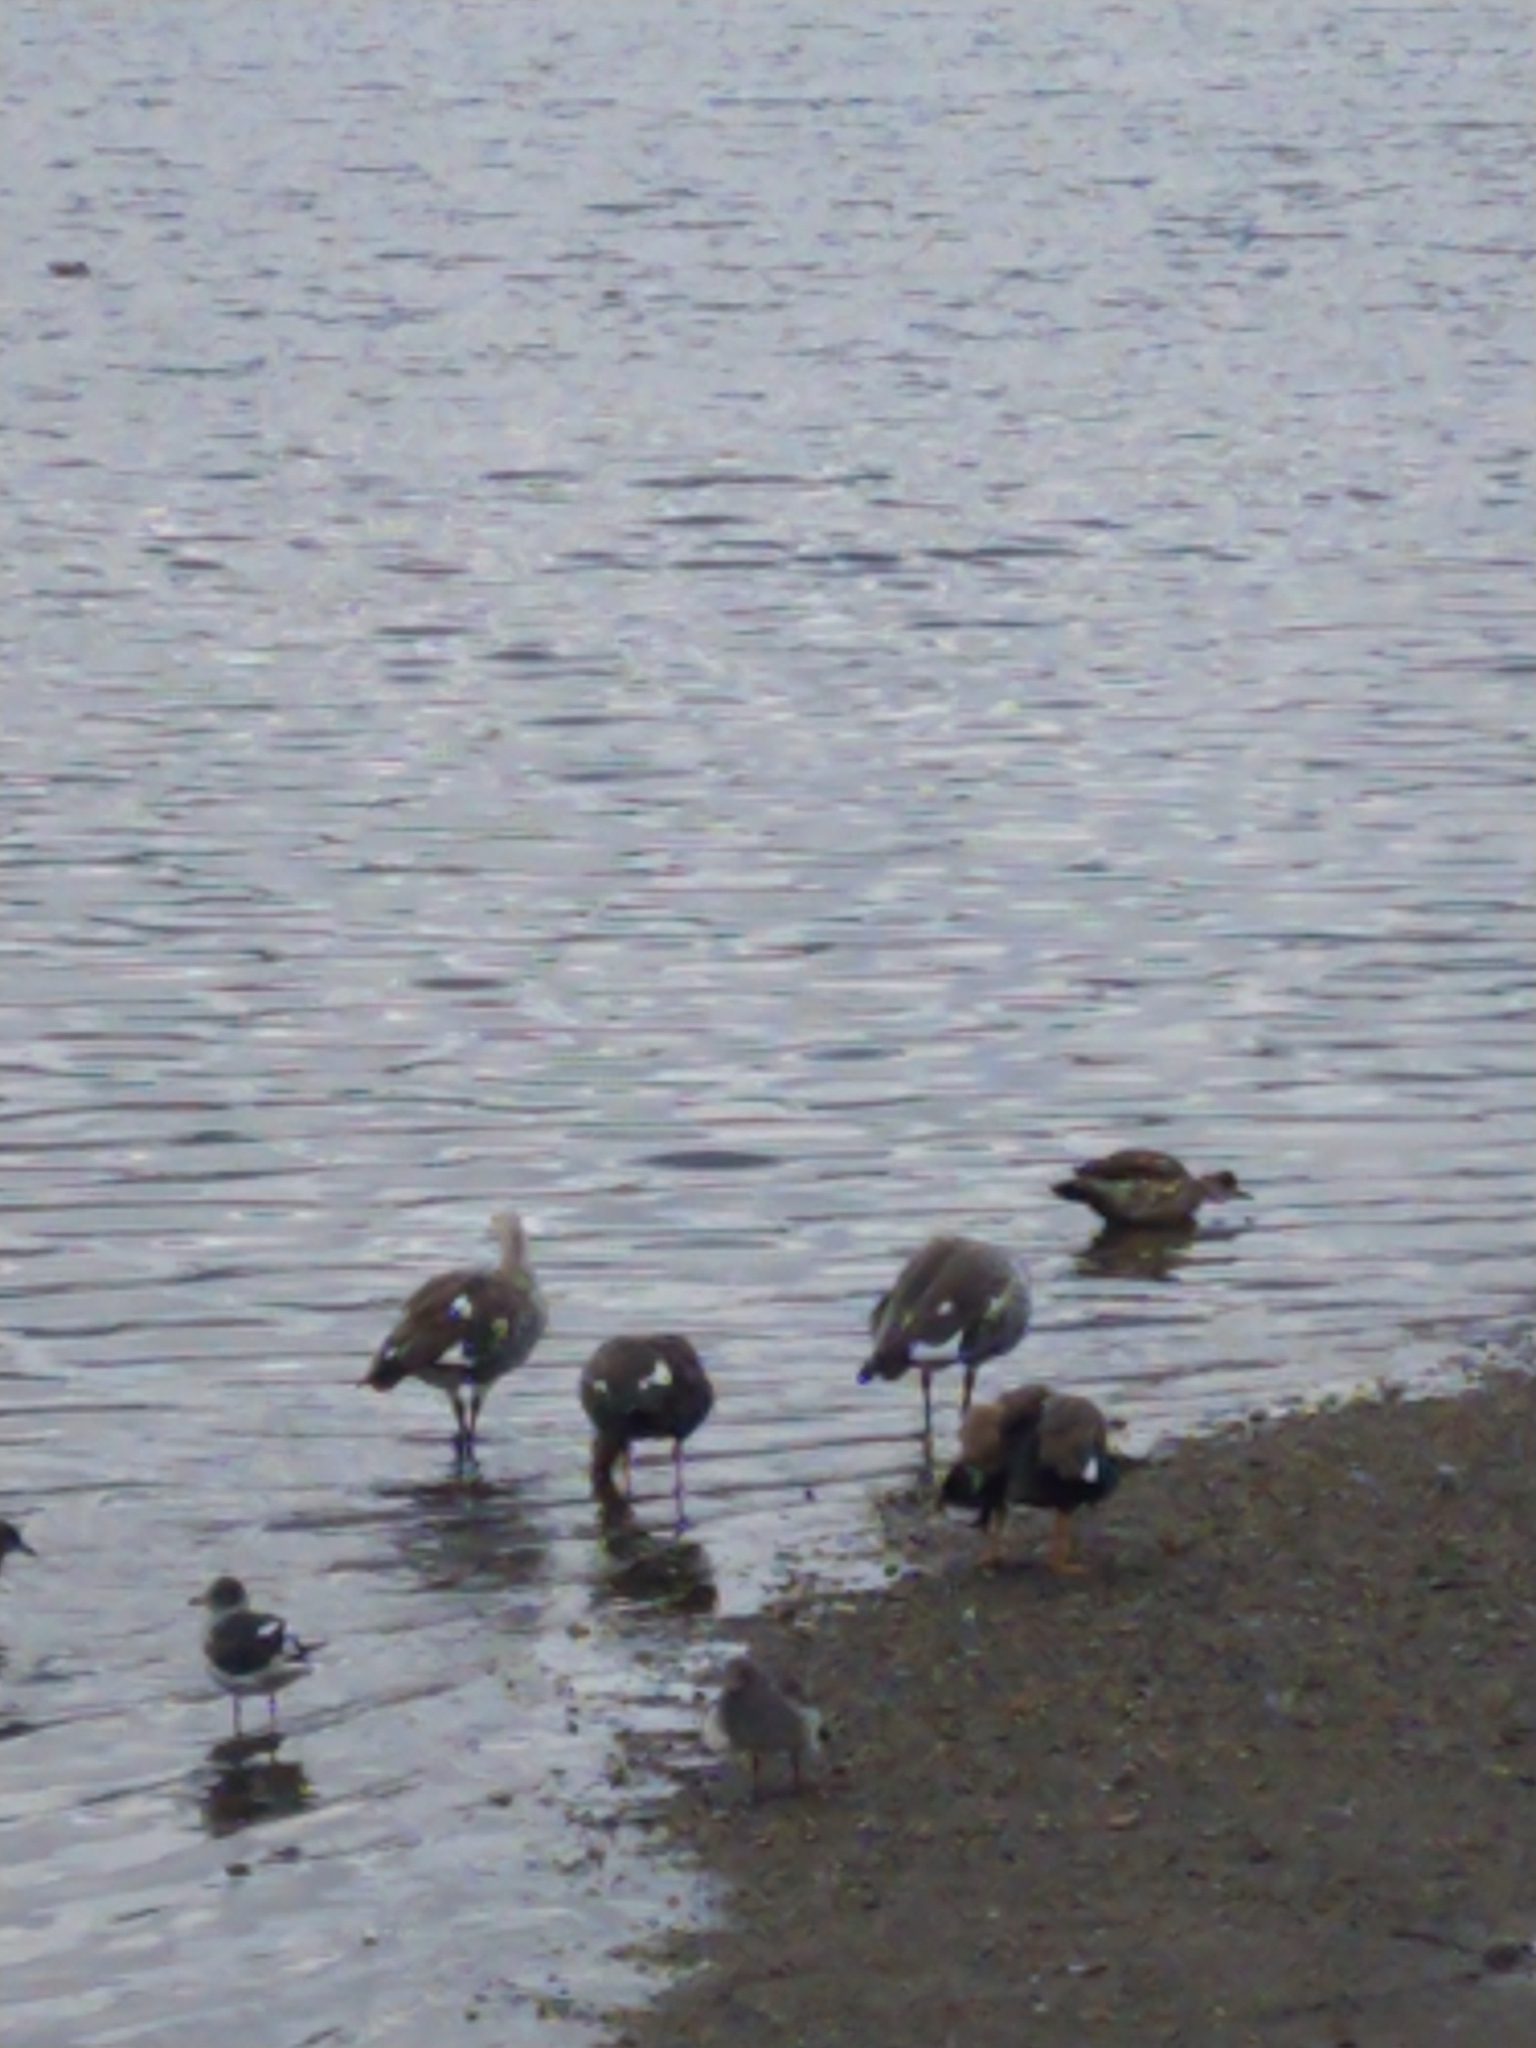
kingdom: Animalia
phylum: Chordata
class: Aves
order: Anseriformes
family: Anatidae
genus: Chloephaga
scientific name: Chloephaga picta
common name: Upland goose
